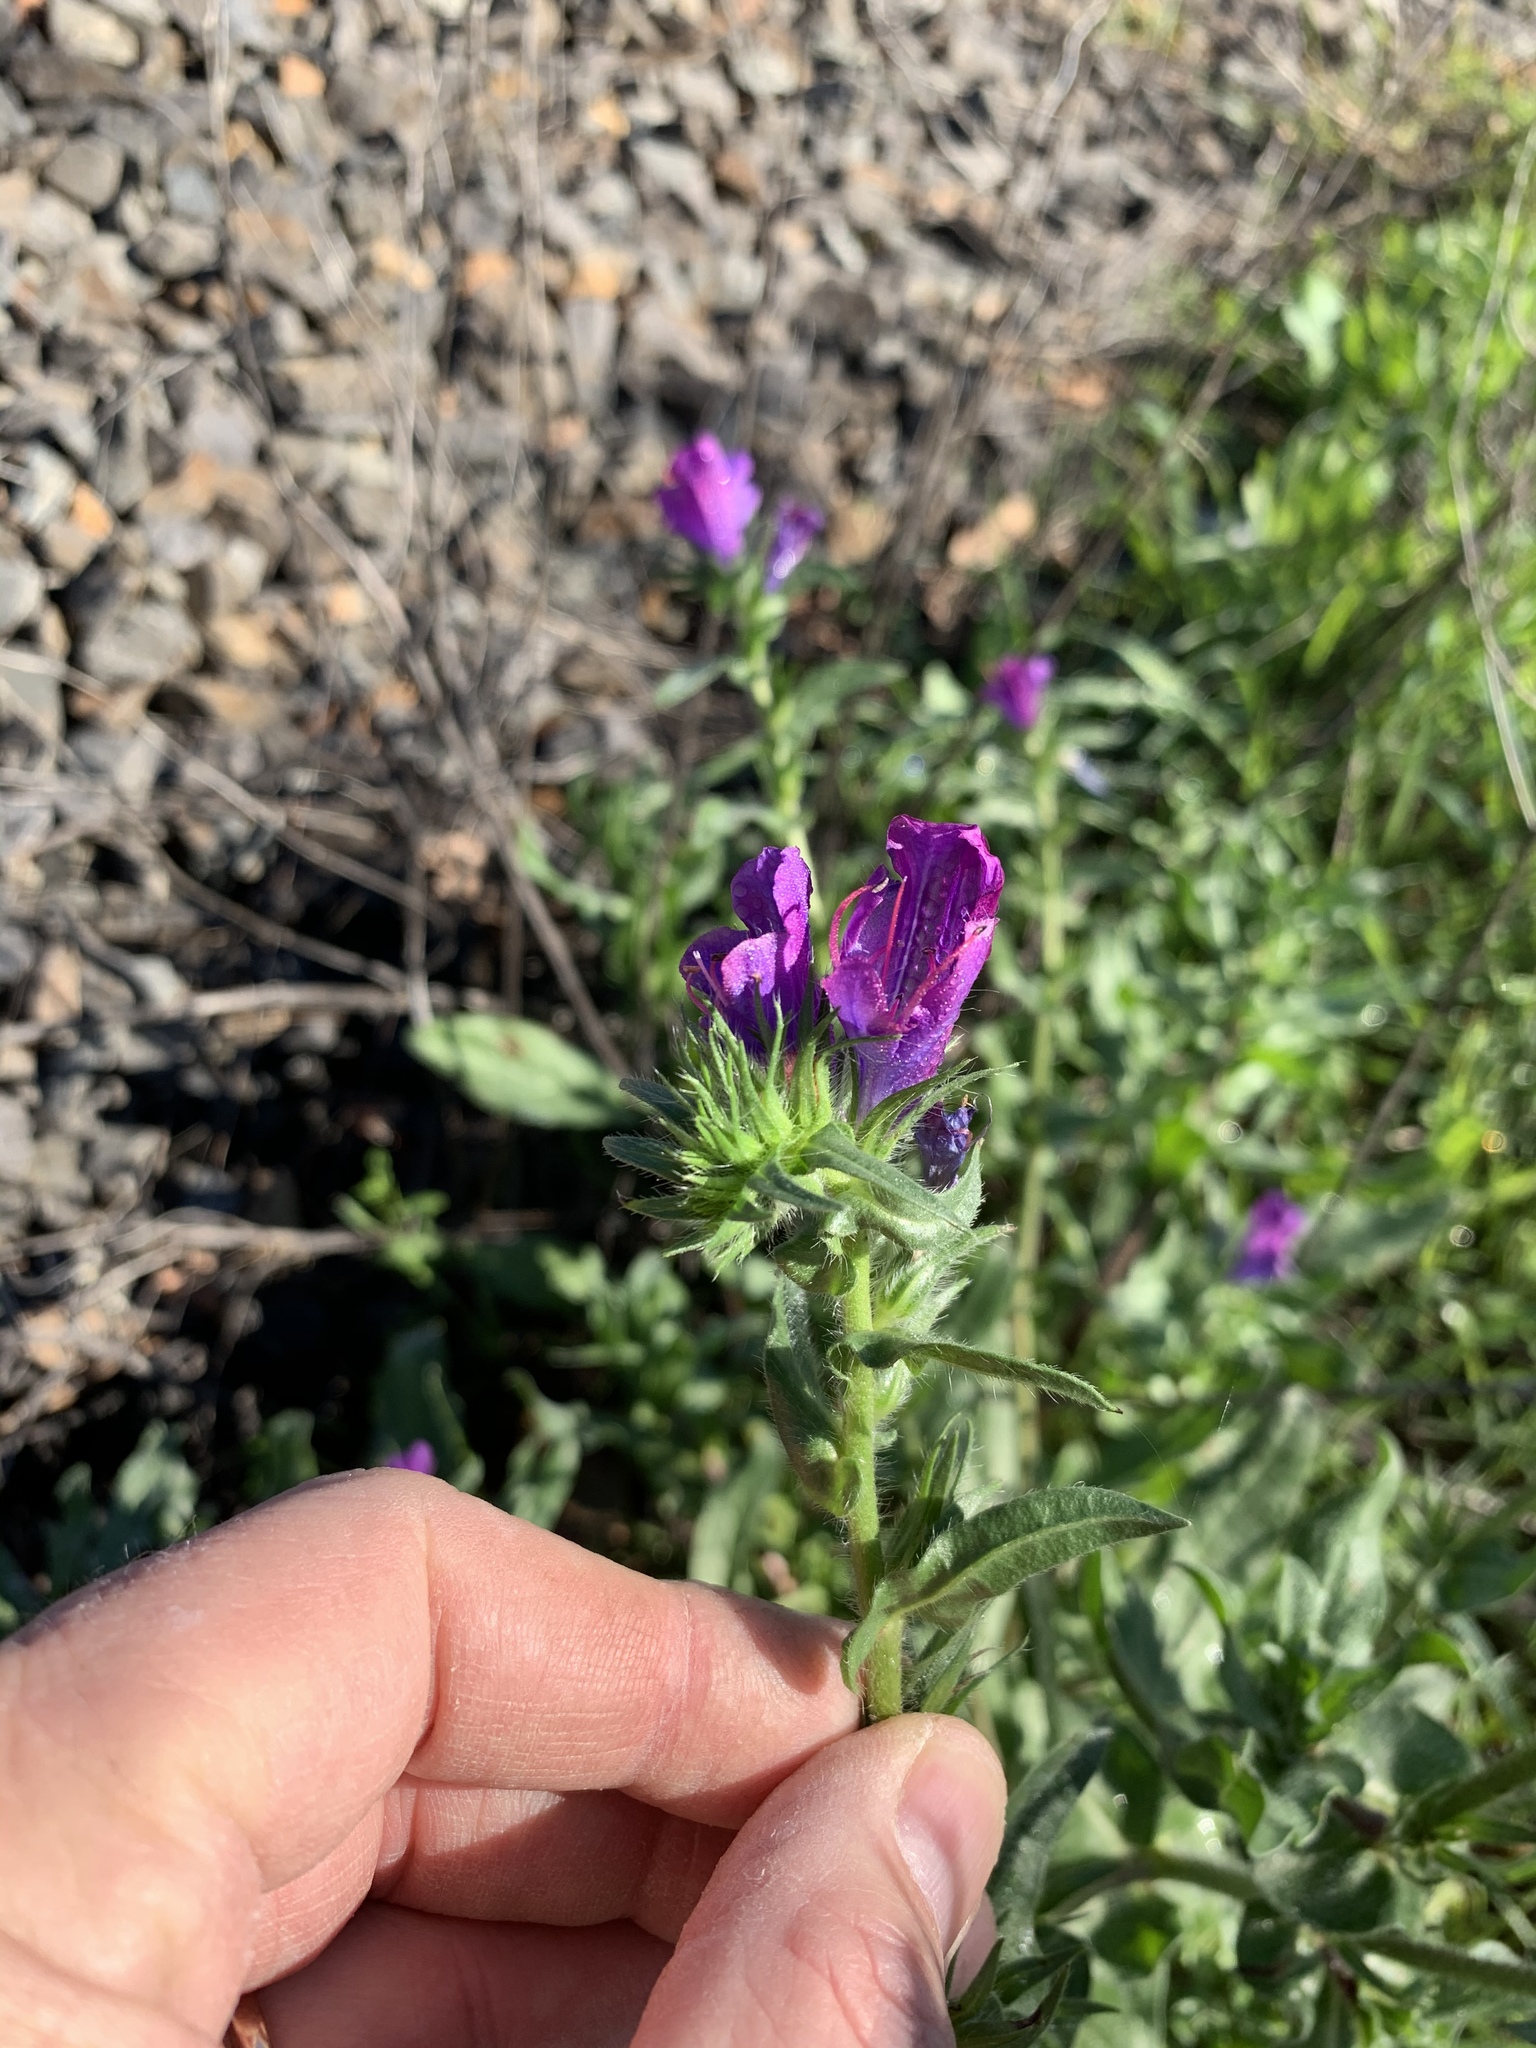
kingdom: Plantae
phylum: Tracheophyta
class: Magnoliopsida
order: Boraginales
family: Boraginaceae
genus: Echium
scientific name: Echium plantagineum
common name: Purple viper's-bugloss
